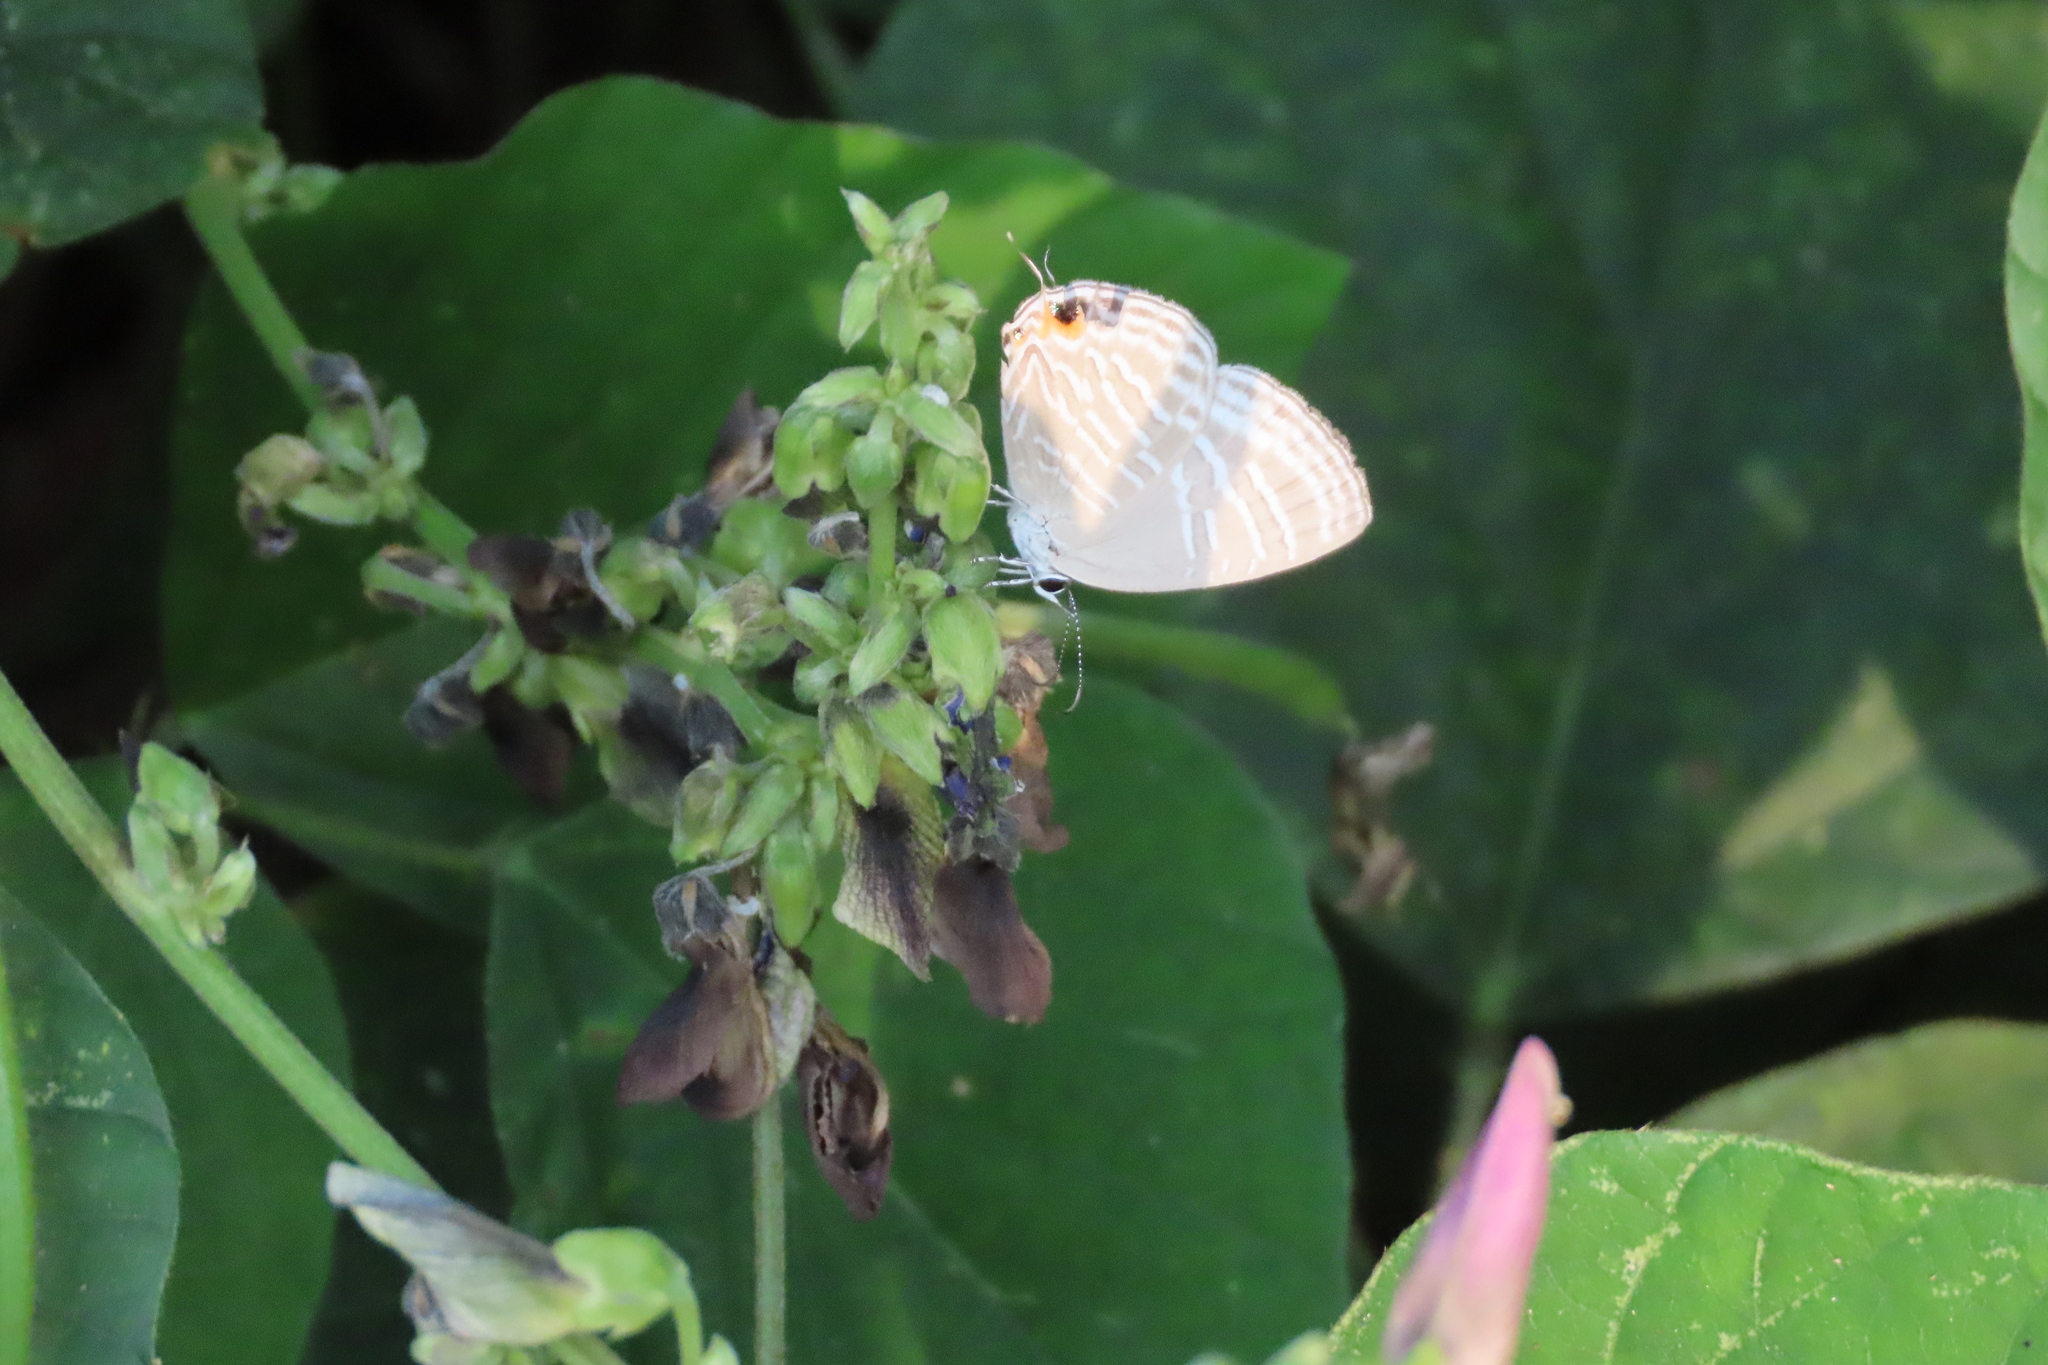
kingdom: Animalia
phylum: Arthropoda
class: Insecta
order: Lepidoptera
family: Lycaenidae
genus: Jamides
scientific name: Jamides celeno
